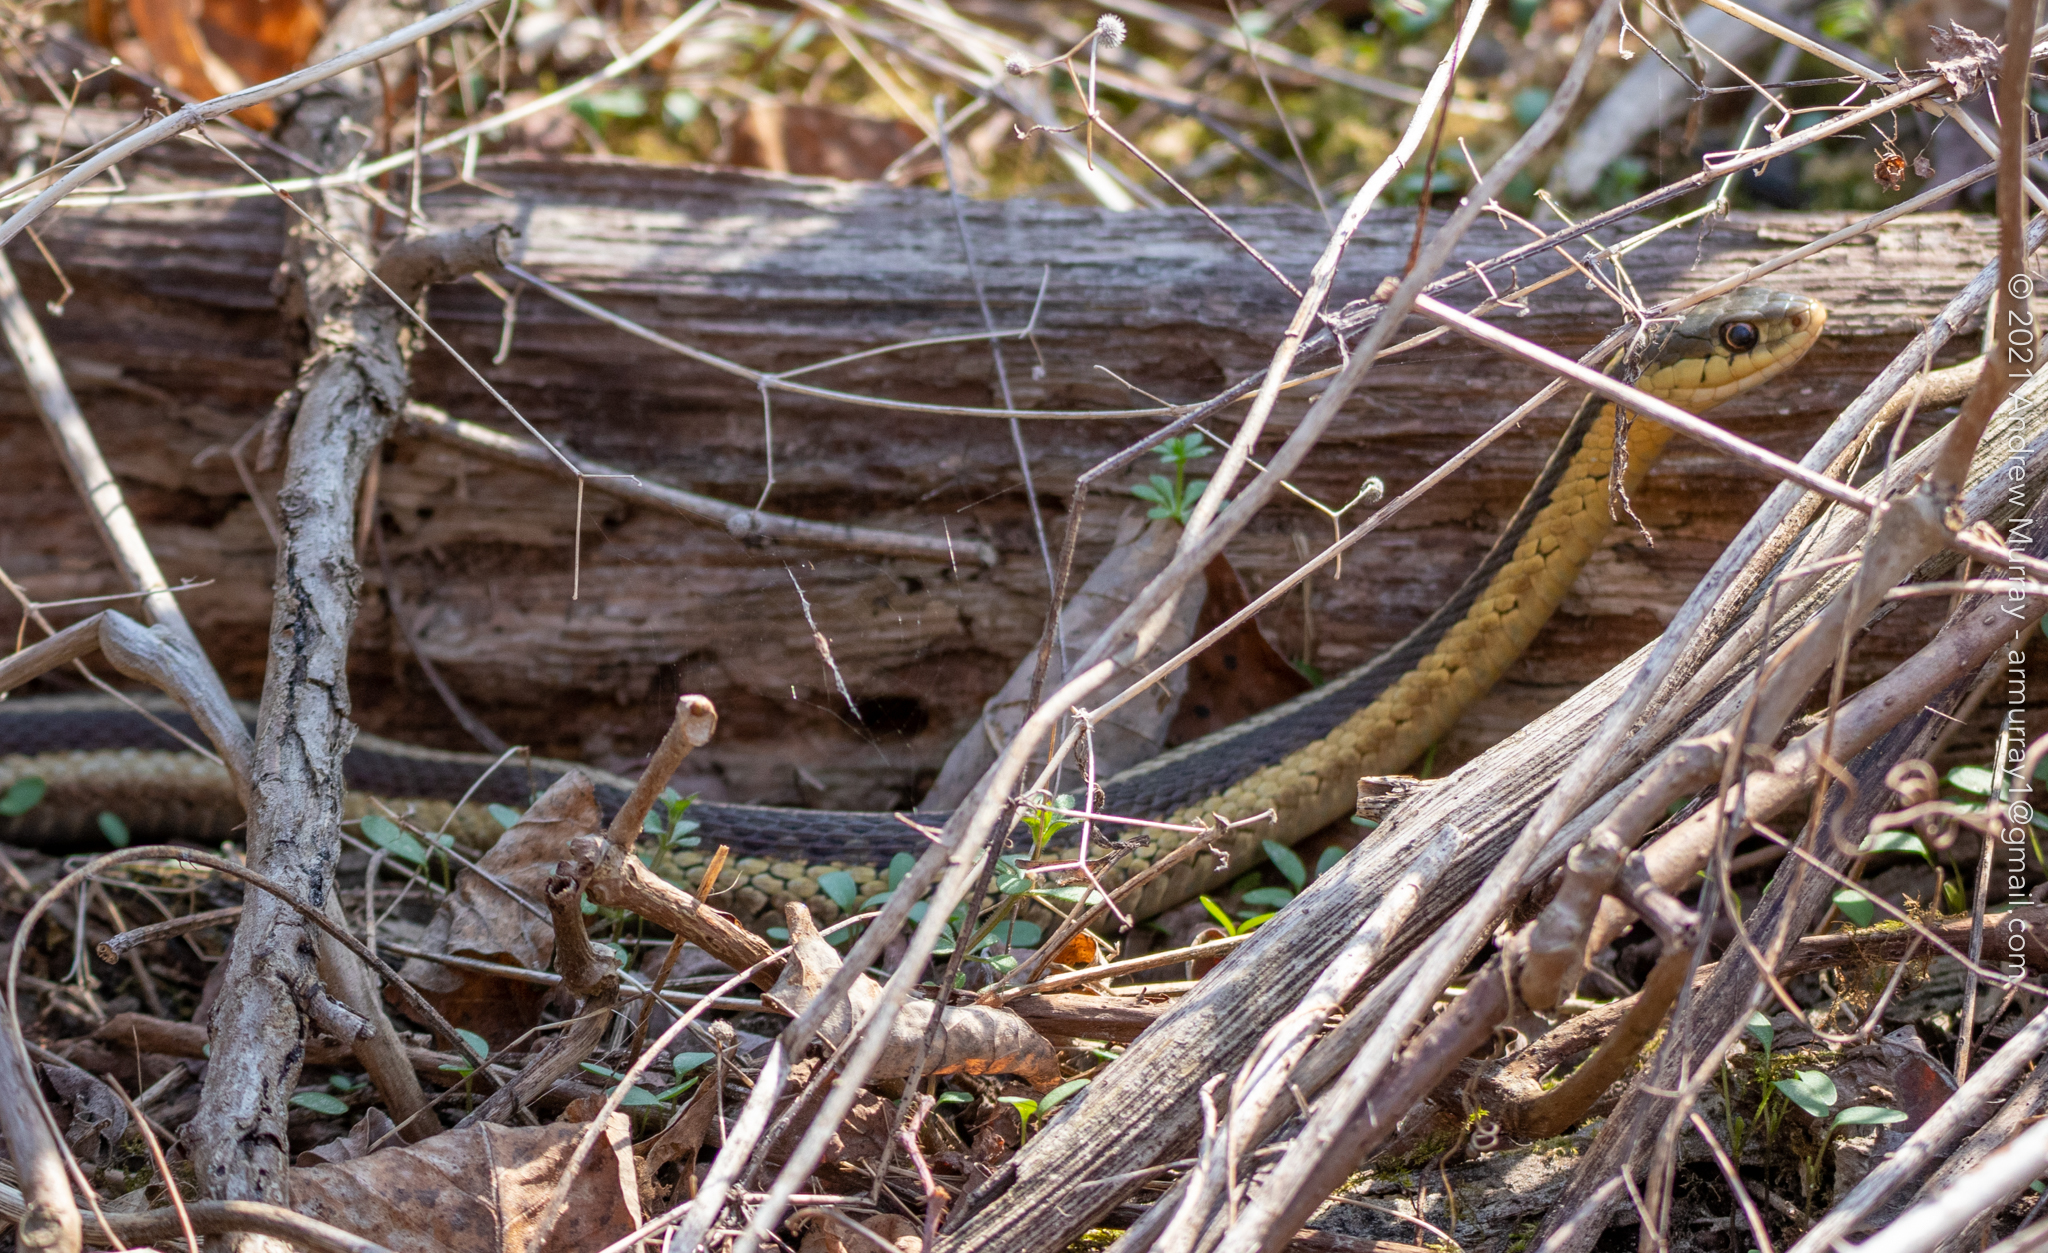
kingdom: Animalia
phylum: Chordata
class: Squamata
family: Colubridae
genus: Thamnophis
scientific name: Thamnophis sirtalis
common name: Common garter snake
